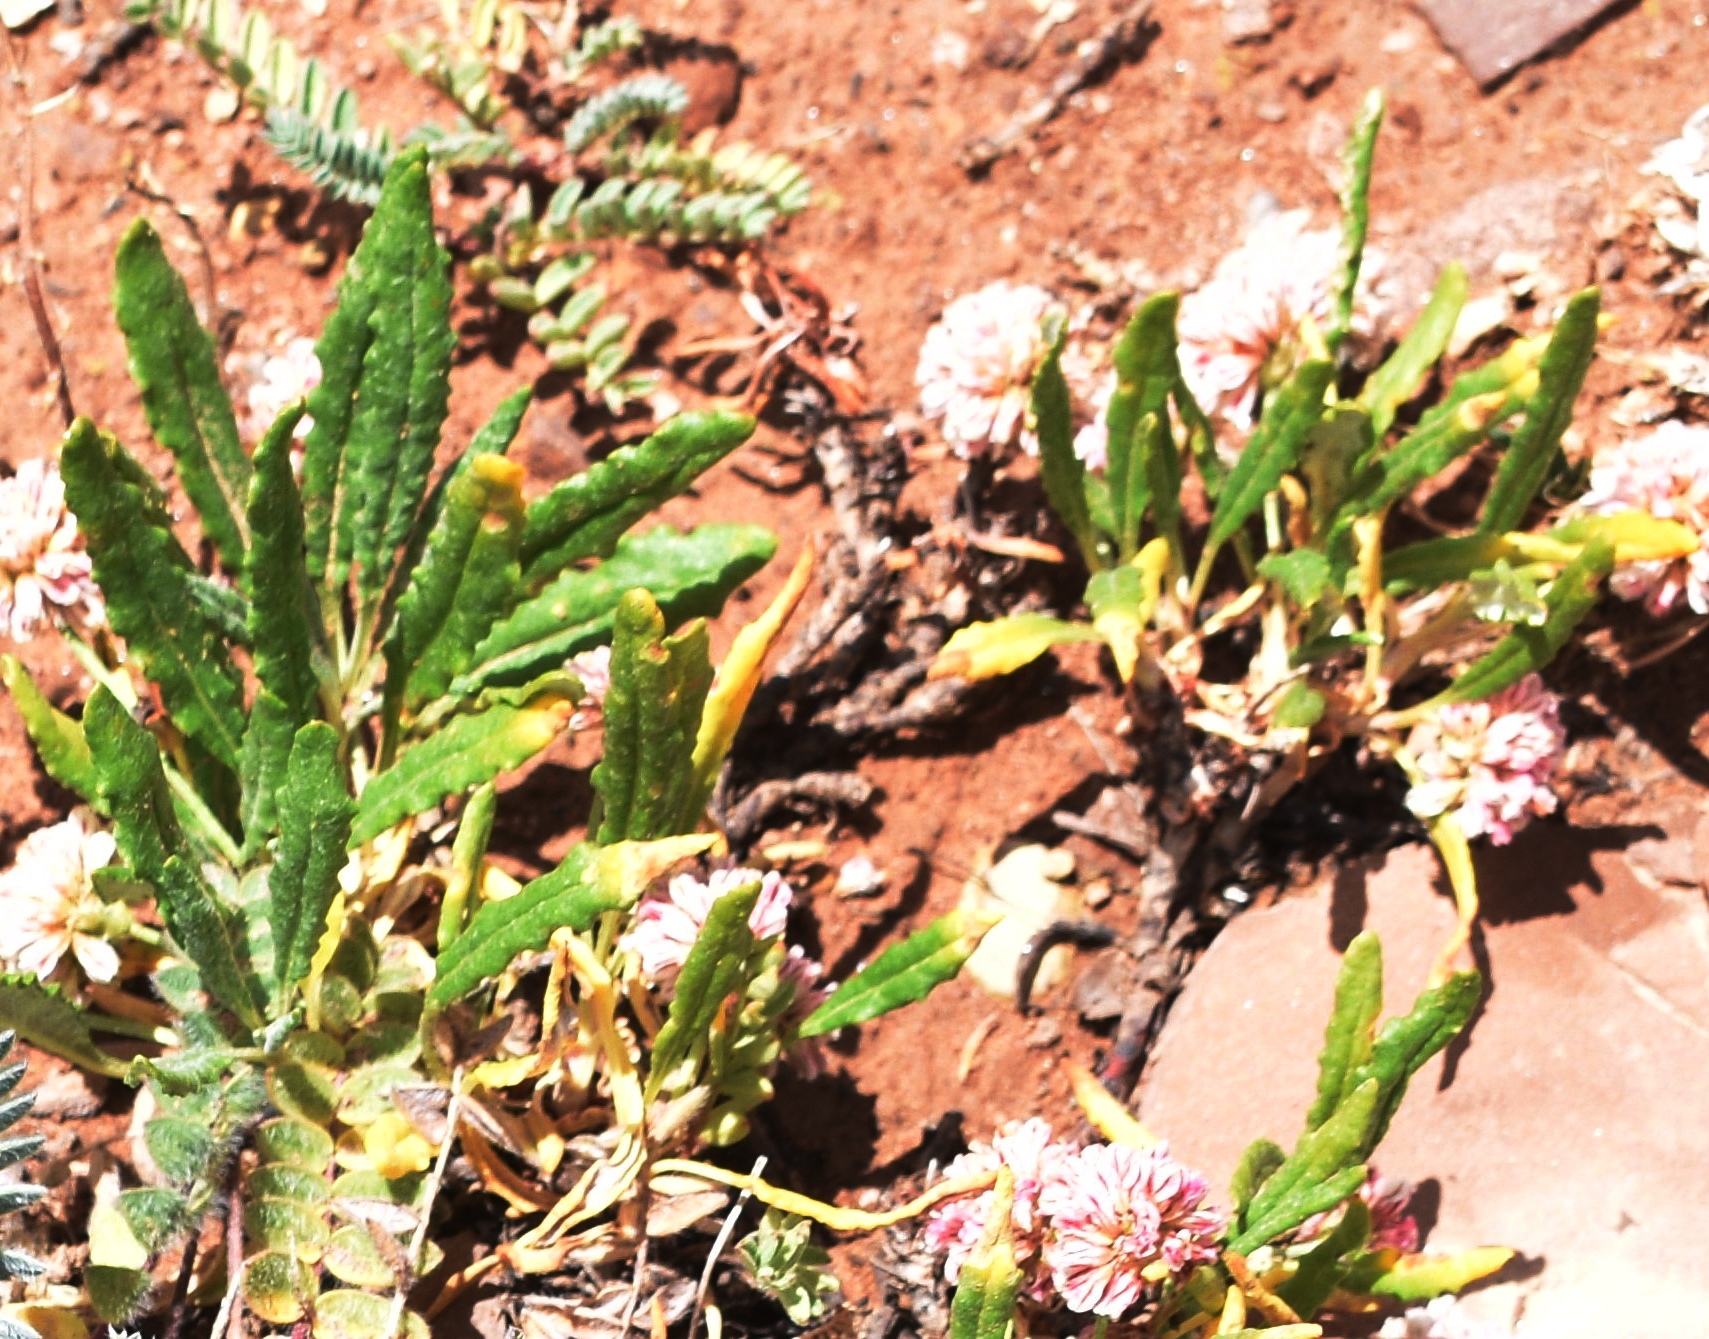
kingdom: Plantae
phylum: Tracheophyta
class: Magnoliopsida
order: Caryophyllales
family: Polygonaceae
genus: Eriogonum
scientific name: Eriogonum coloradense
